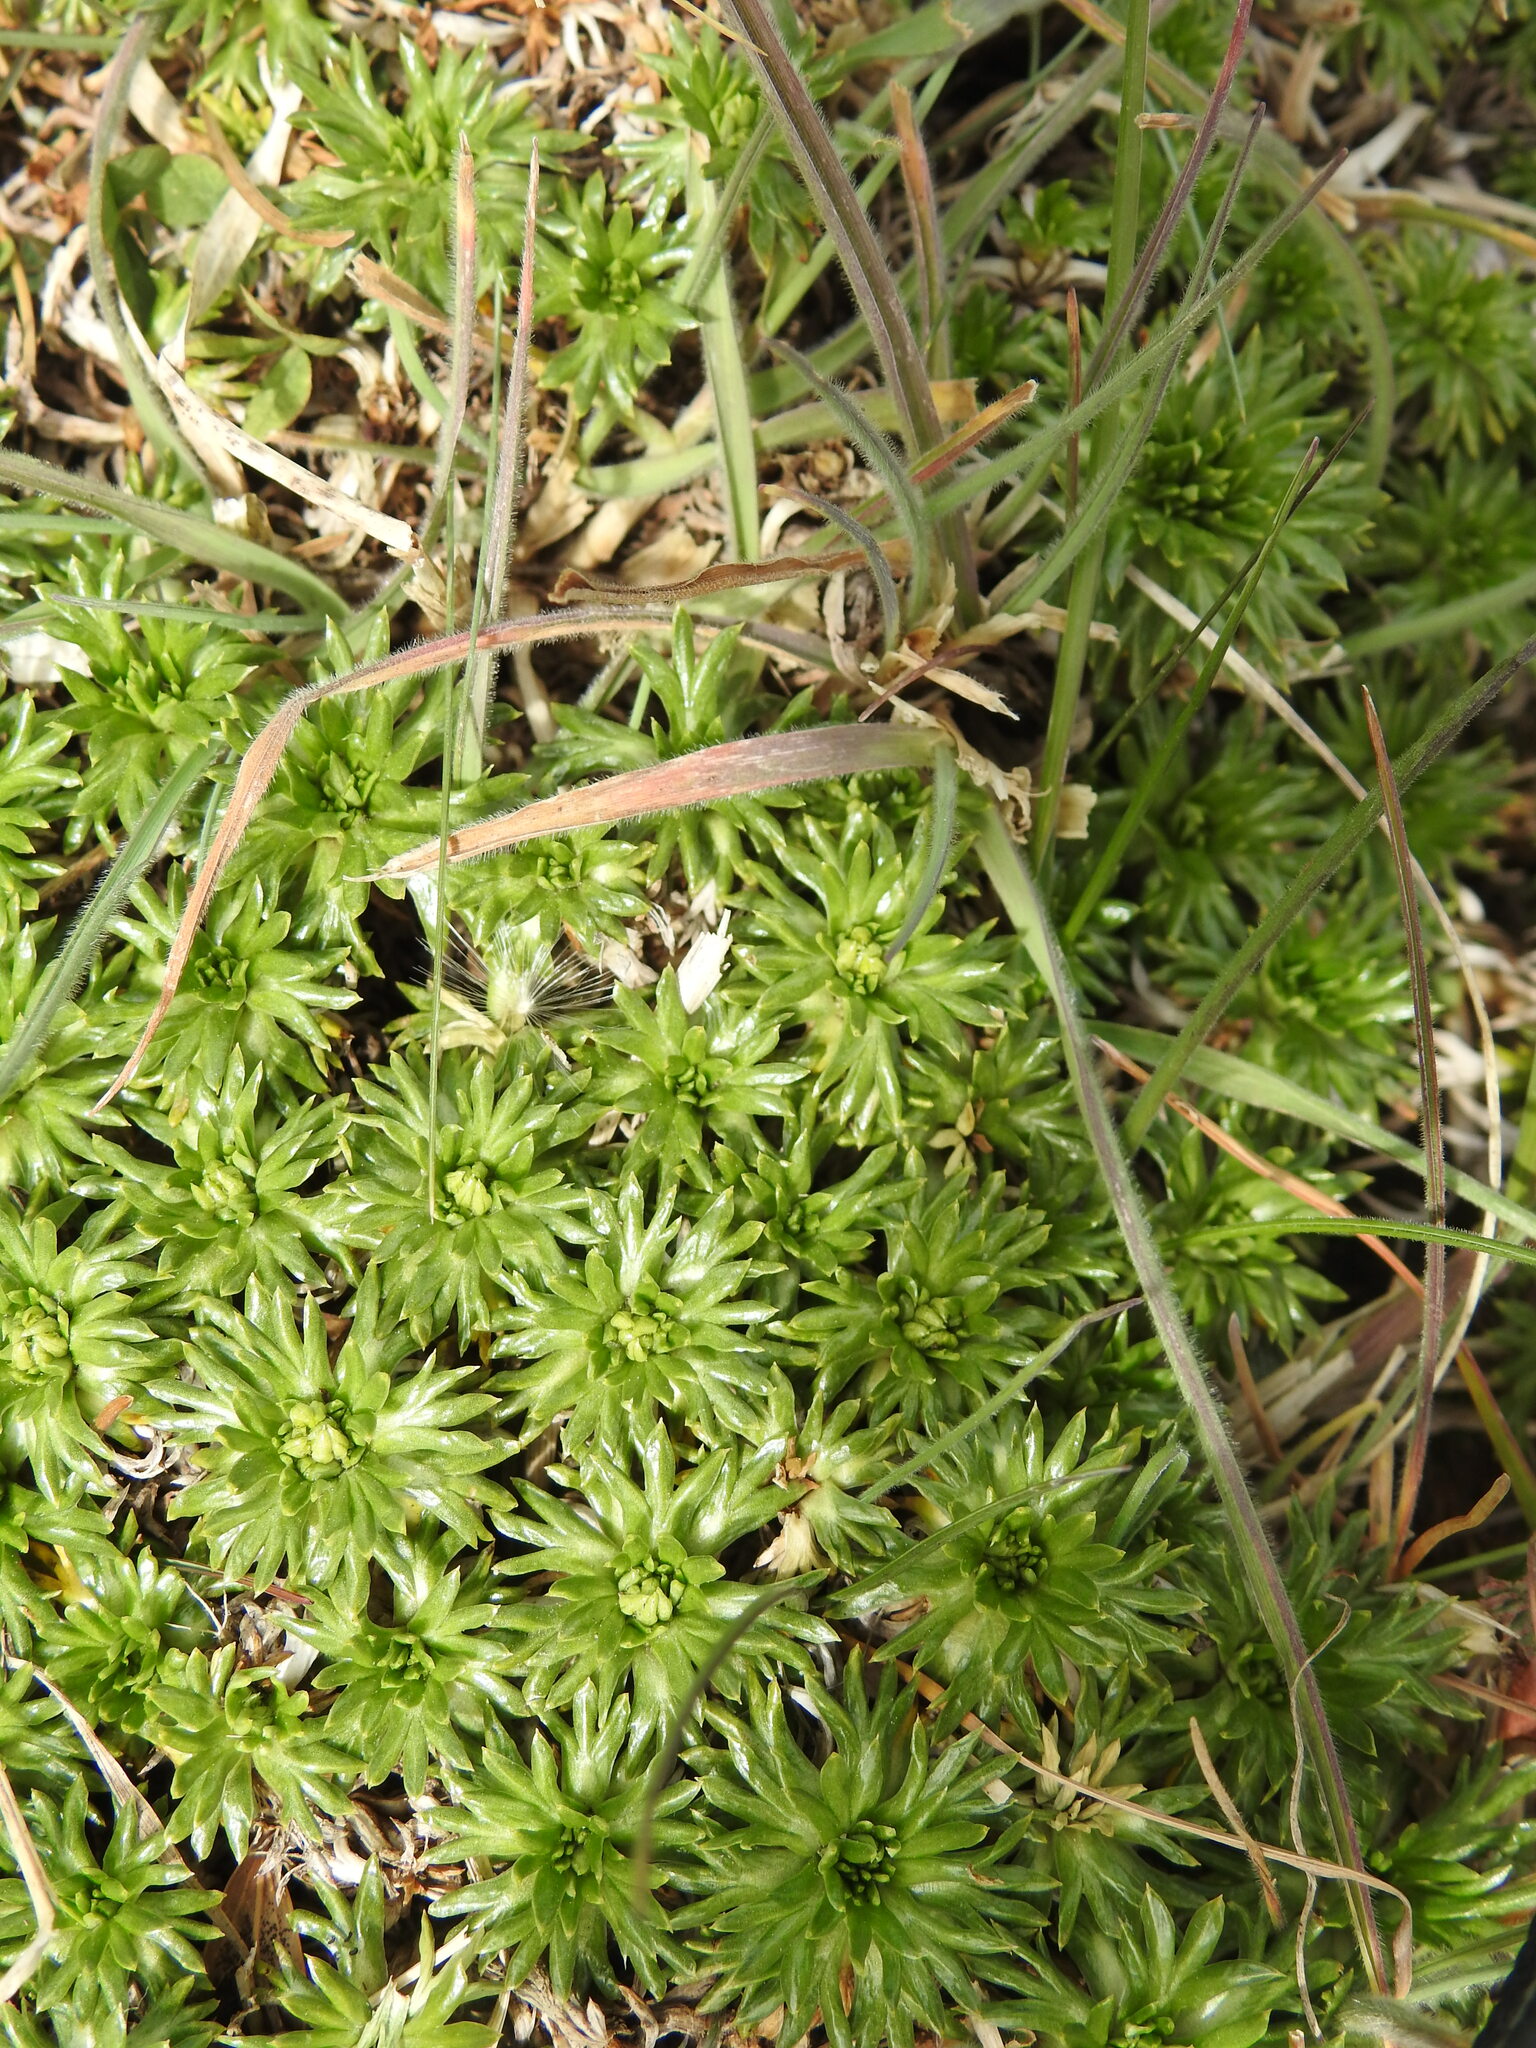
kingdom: Plantae
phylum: Tracheophyta
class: Magnoliopsida
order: Apiales
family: Apiaceae
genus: Azorella
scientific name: Azorella trifurcata
